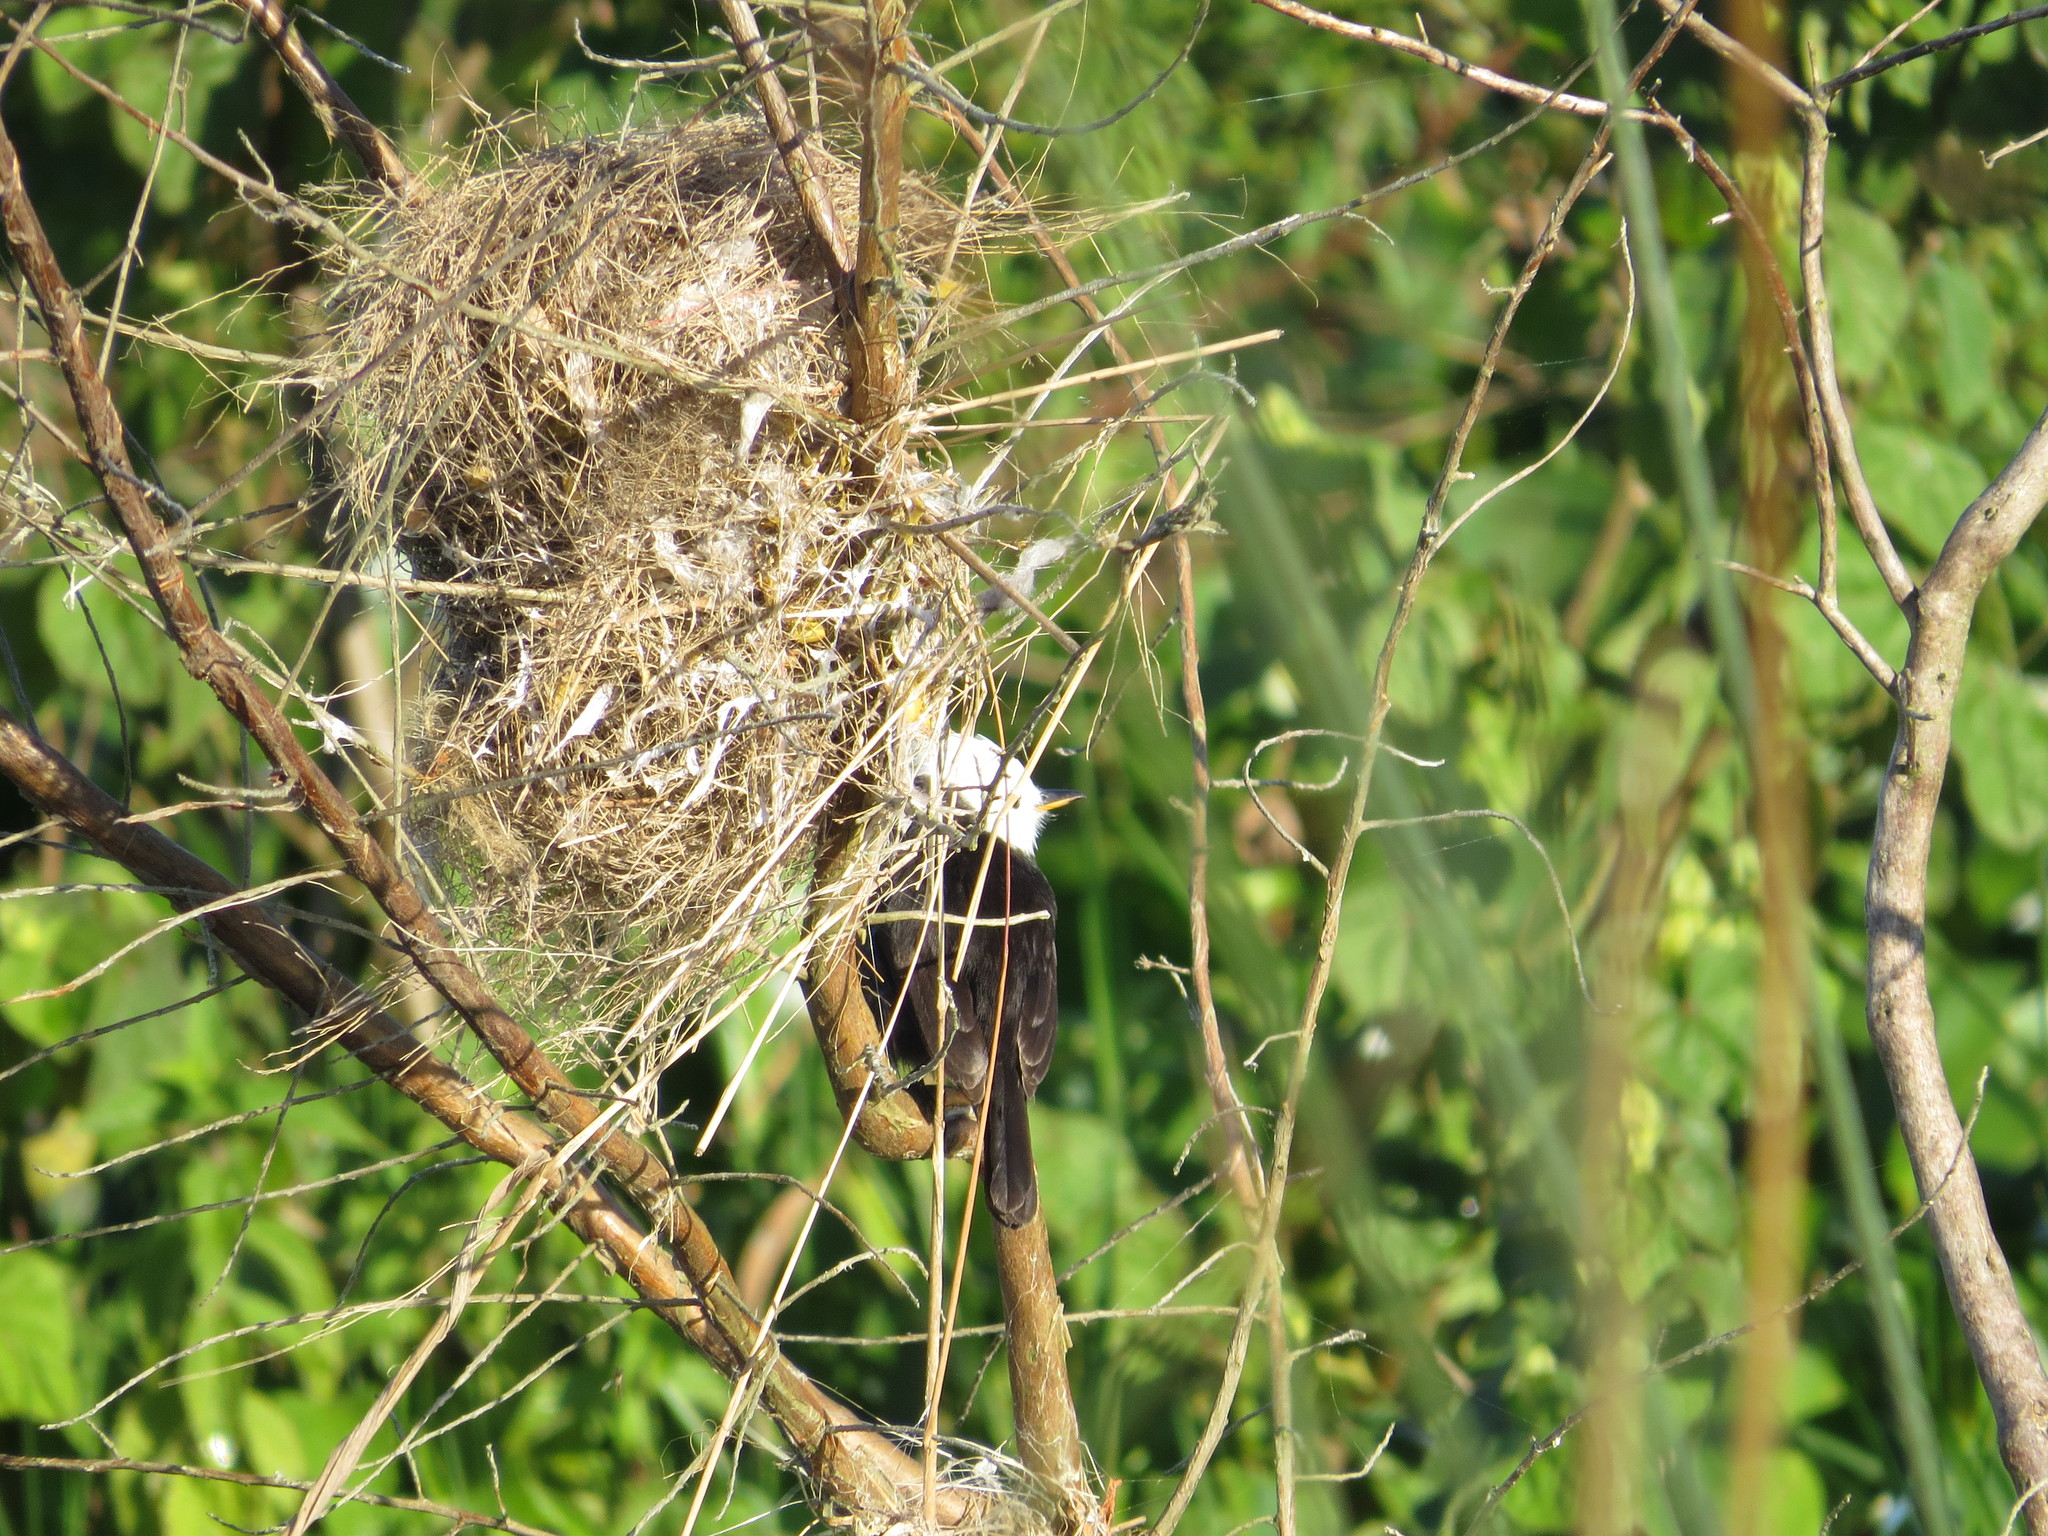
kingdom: Animalia
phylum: Chordata
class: Aves
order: Passeriformes
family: Tyrannidae
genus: Arundinicola
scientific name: Arundinicola leucocephala
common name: White-headed marsh tyrant
